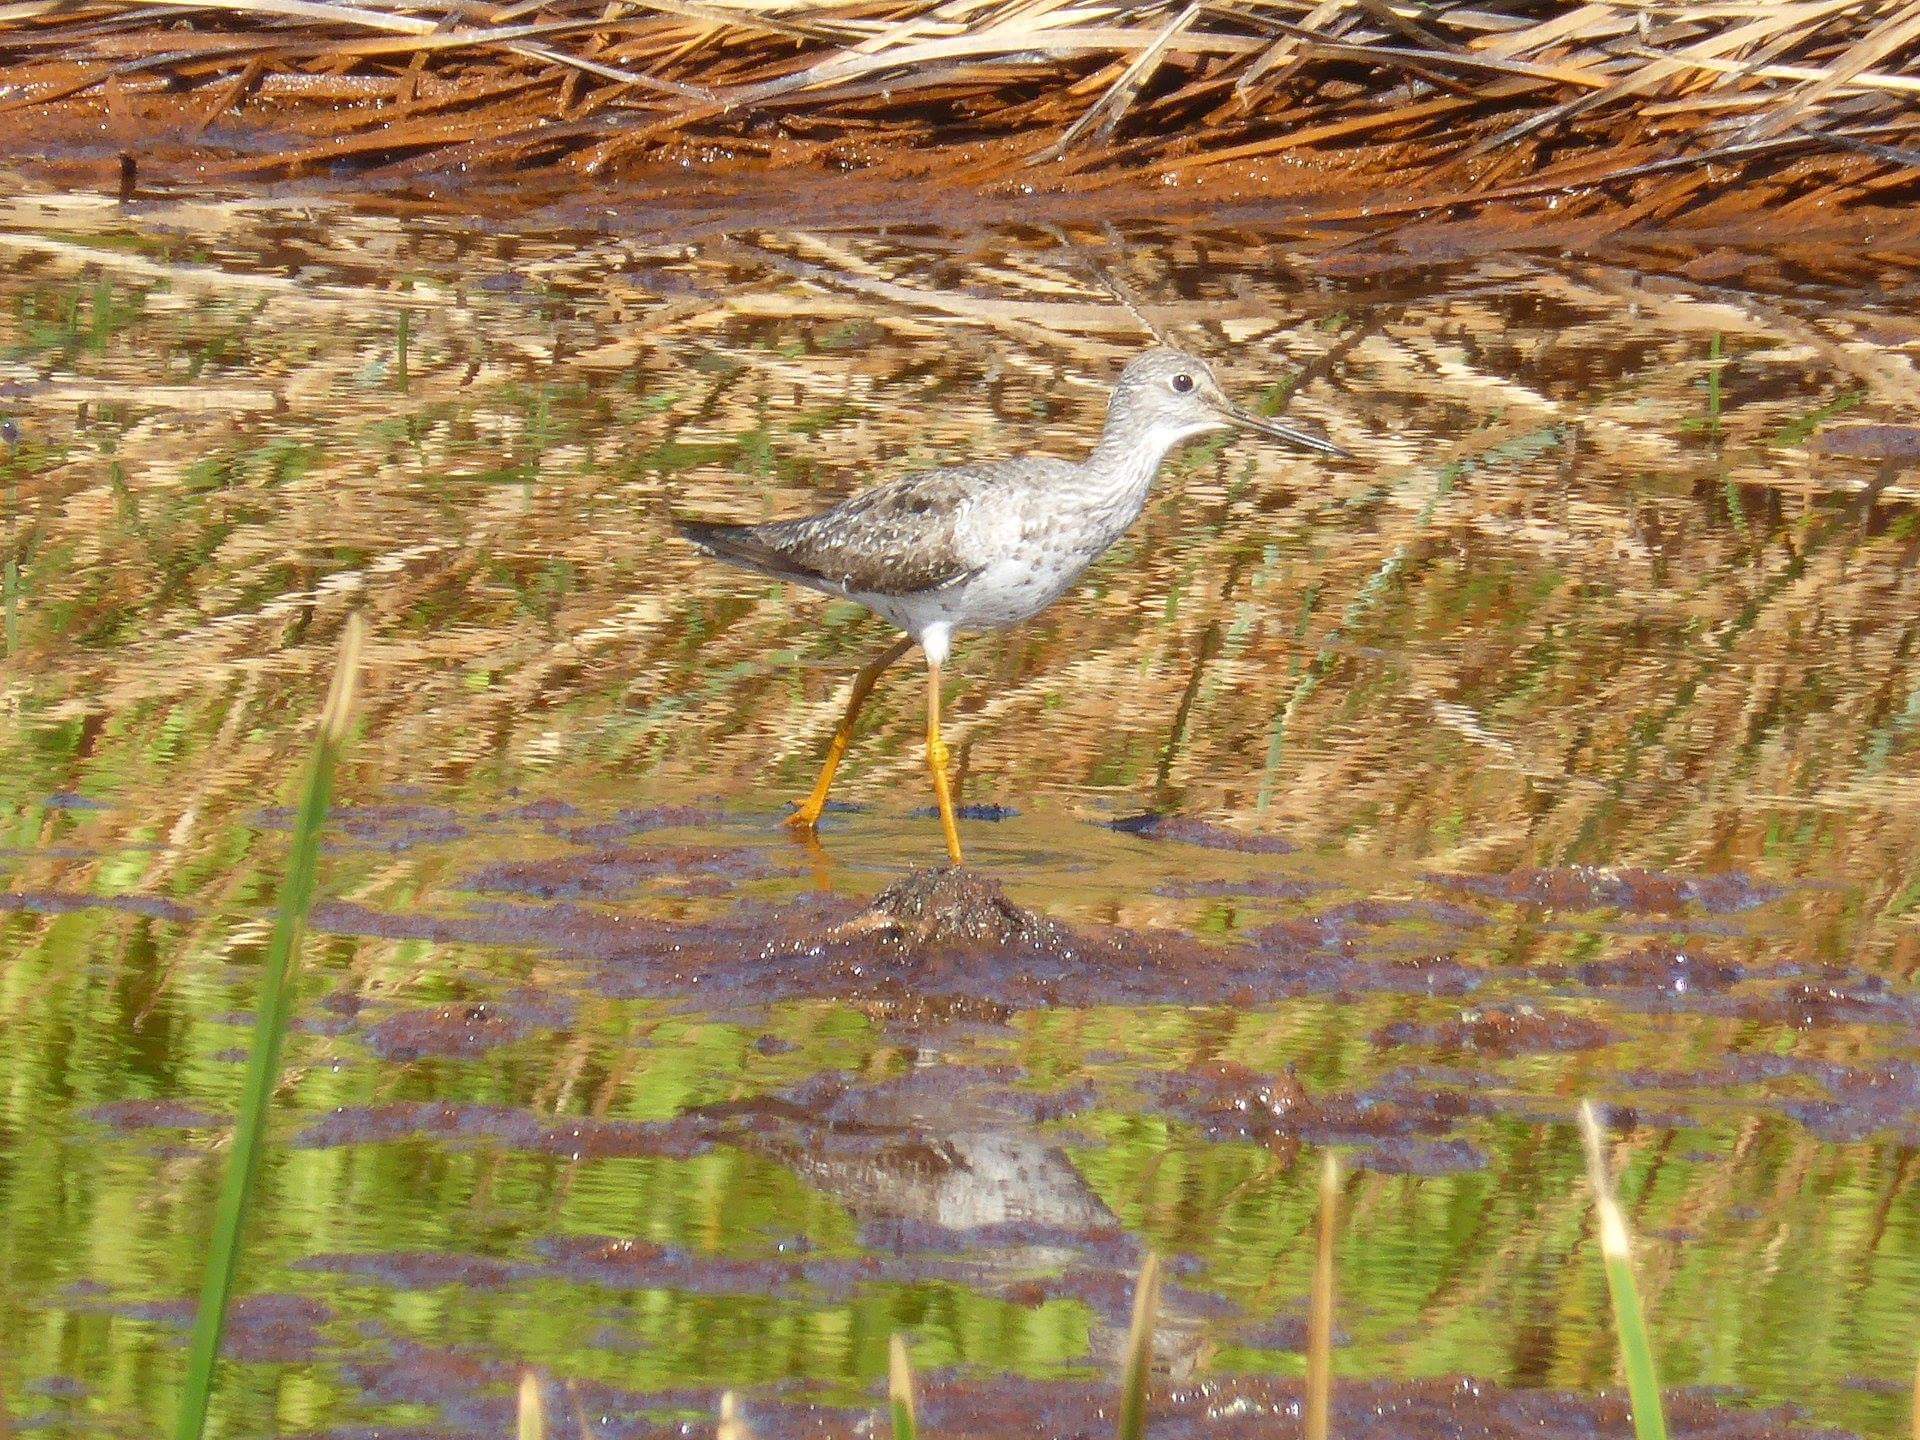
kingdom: Animalia
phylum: Chordata
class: Aves
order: Charadriiformes
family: Scolopacidae
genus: Tringa
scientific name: Tringa melanoleuca
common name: Greater yellowlegs
